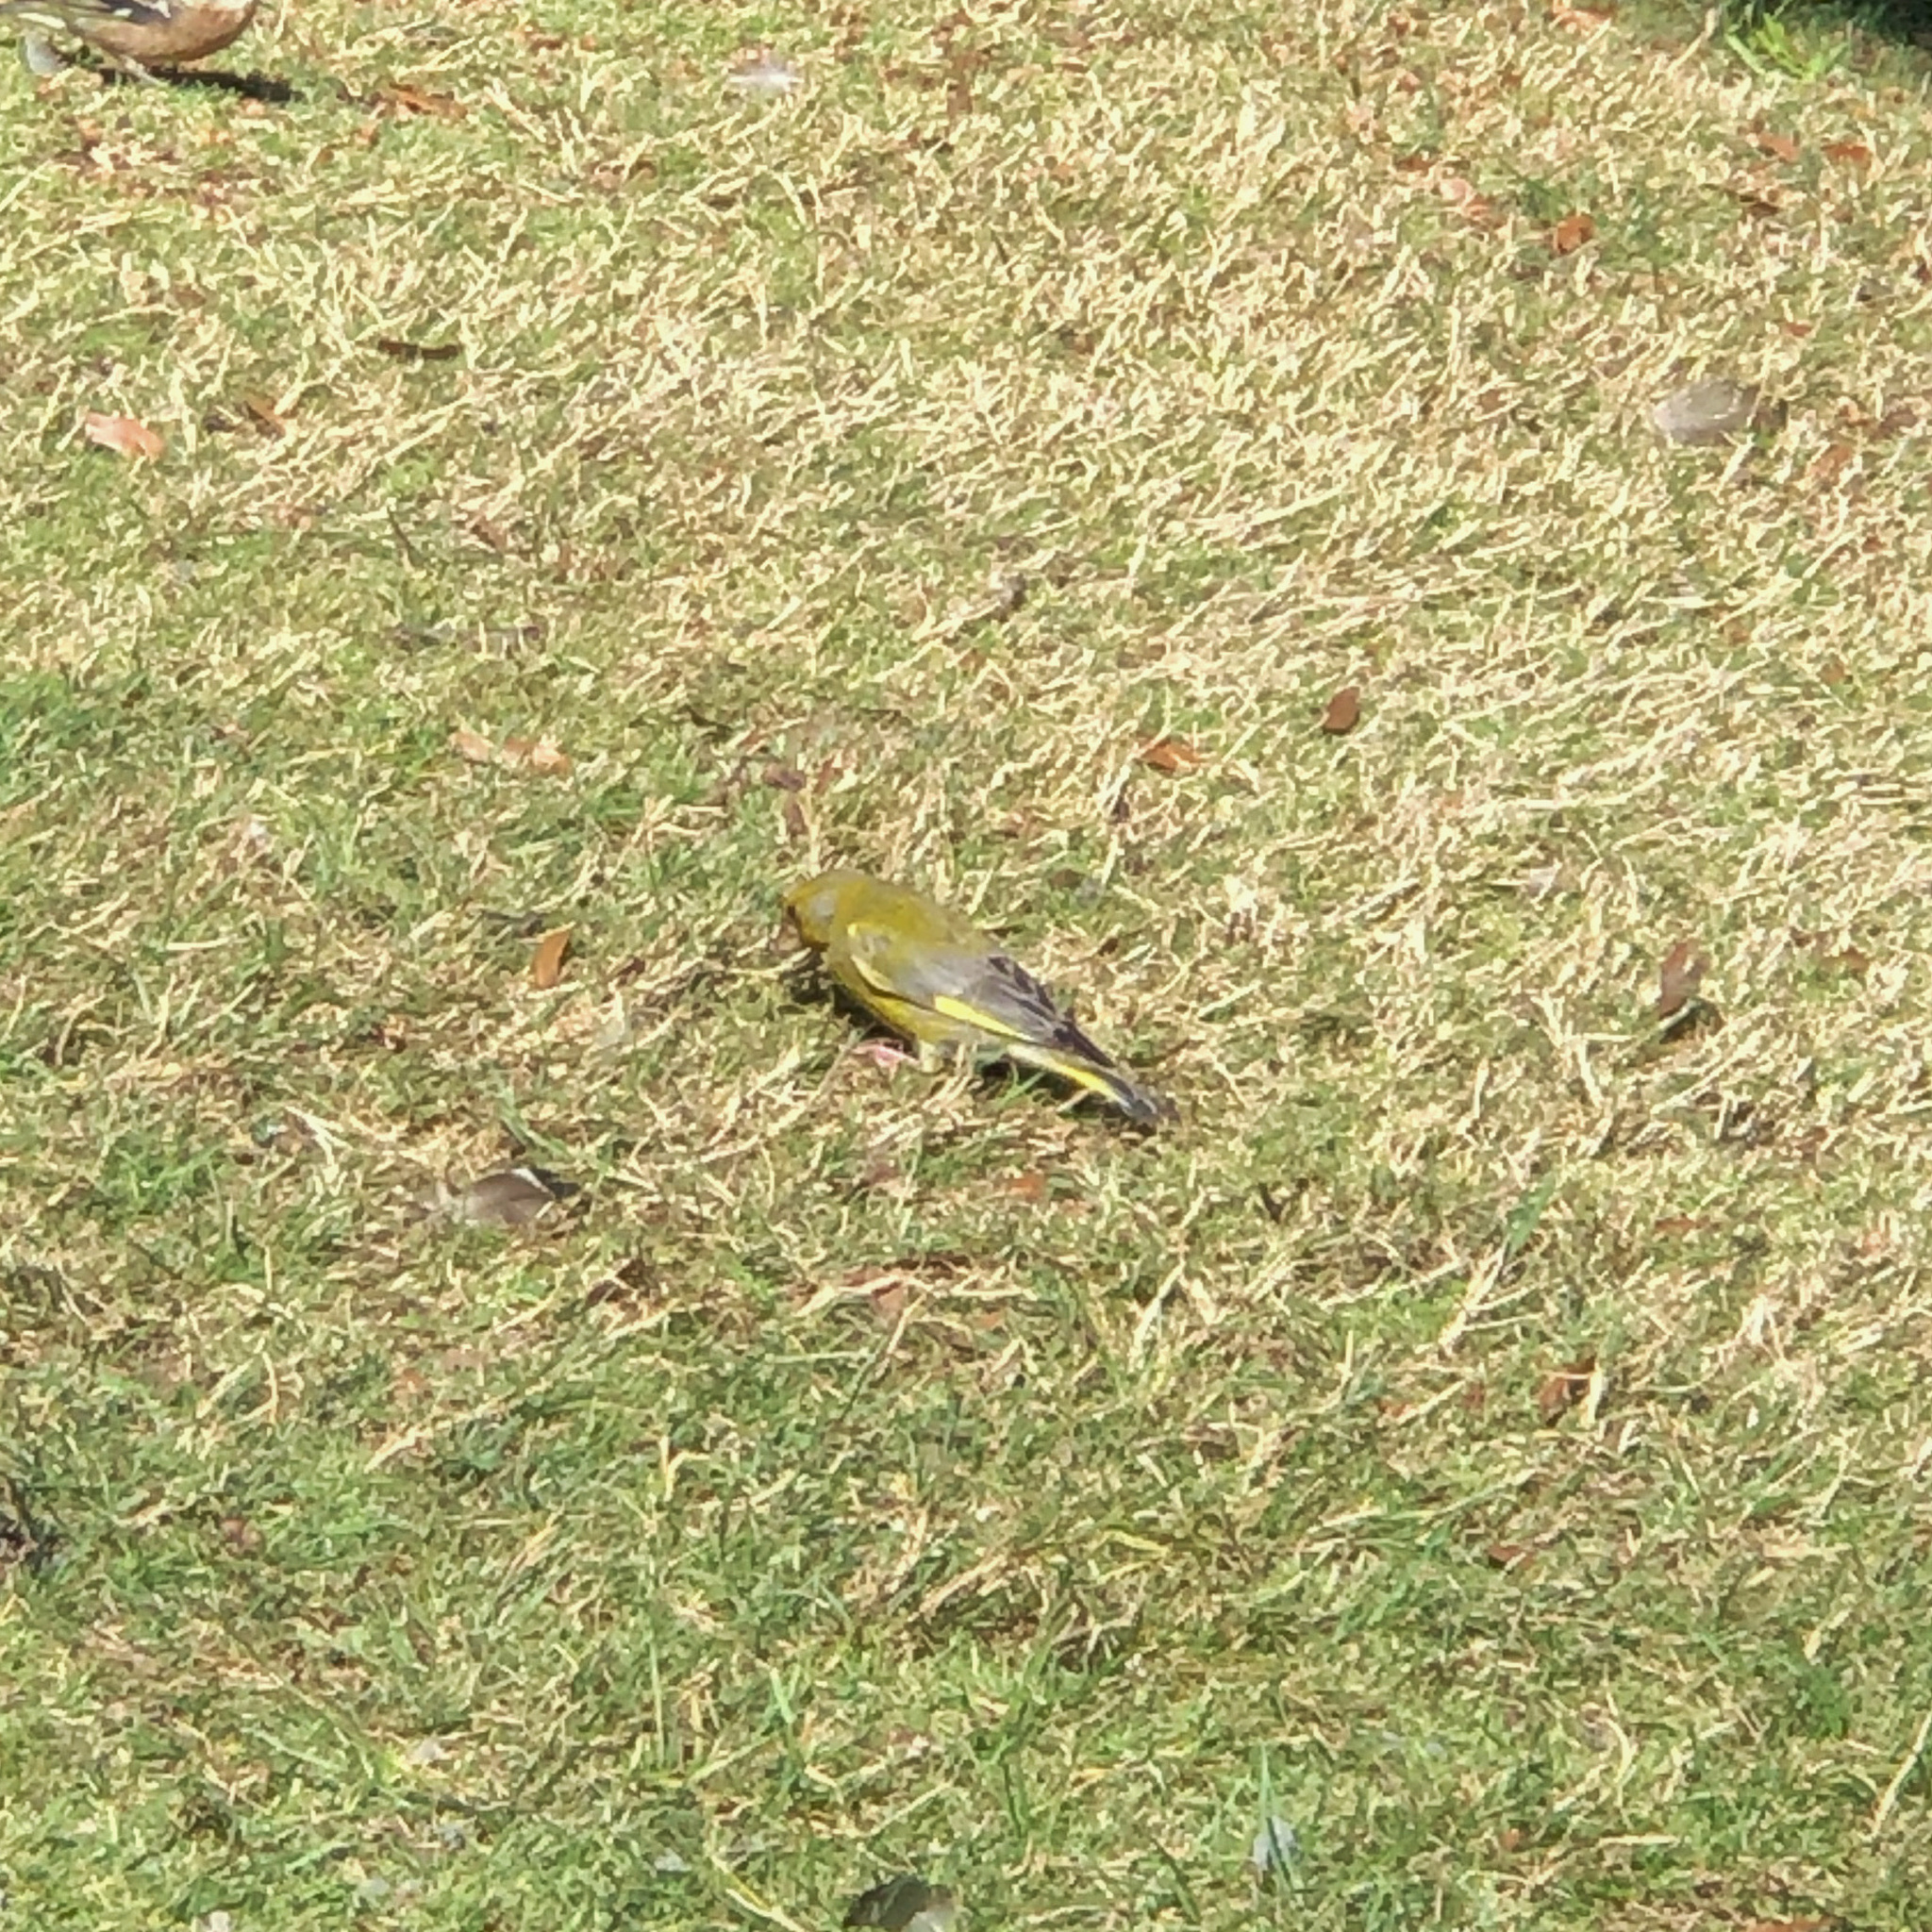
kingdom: Plantae
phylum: Tracheophyta
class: Liliopsida
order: Poales
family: Poaceae
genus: Chloris
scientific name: Chloris chloris
